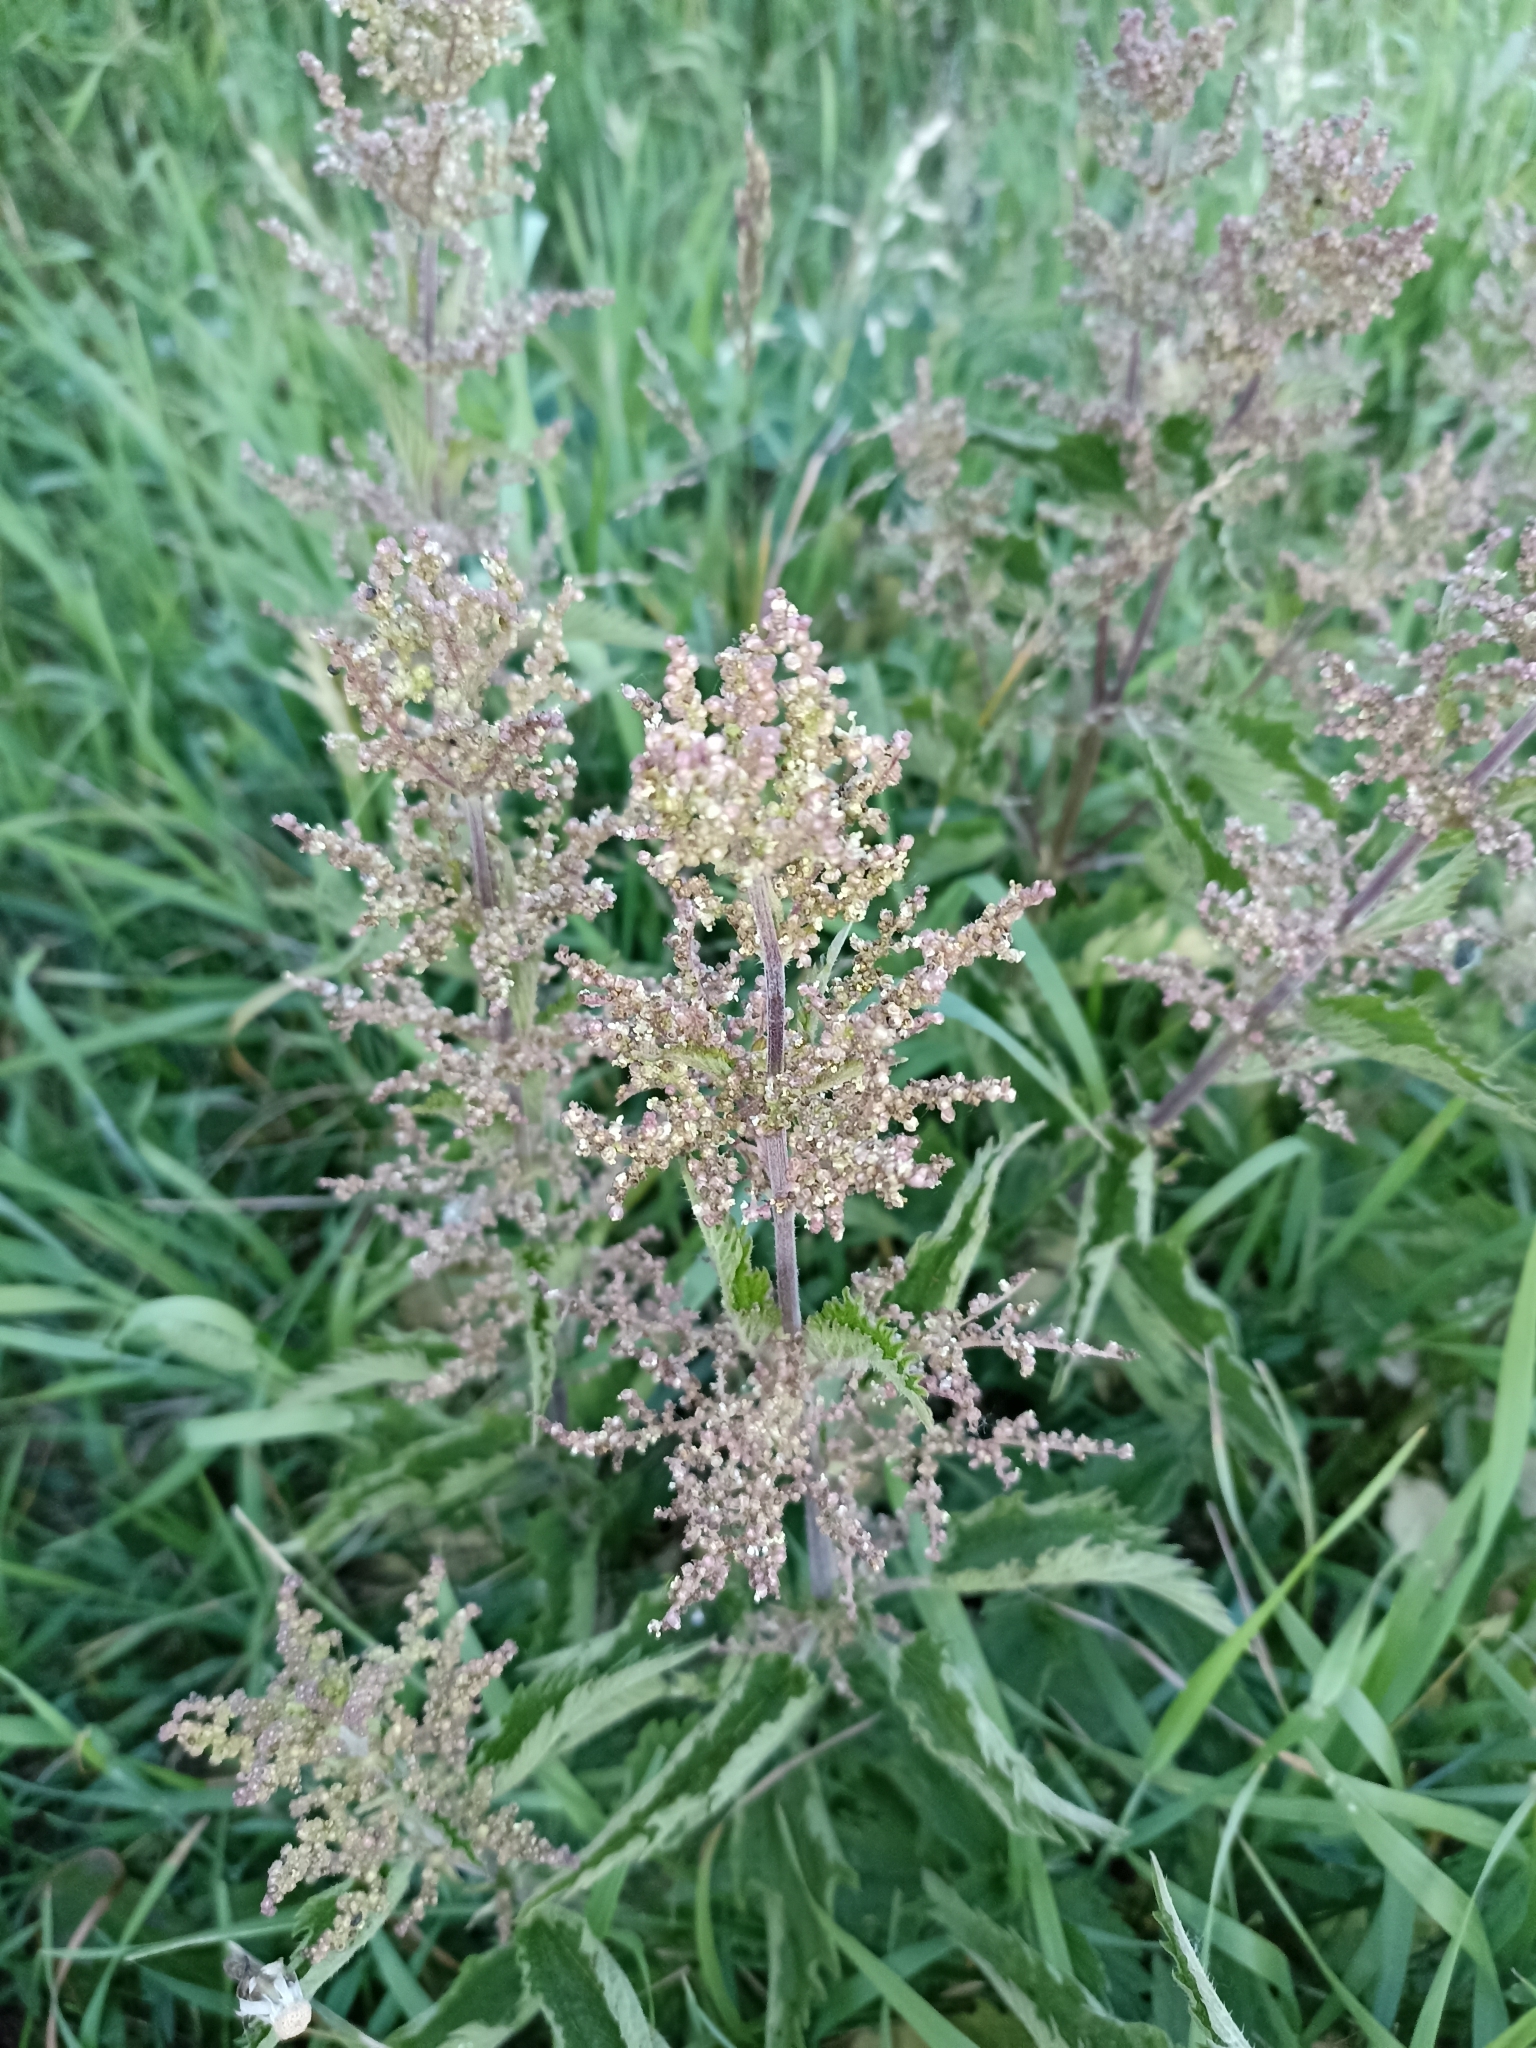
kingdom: Plantae
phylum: Tracheophyta
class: Magnoliopsida
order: Rosales
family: Urticaceae
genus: Urtica
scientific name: Urtica dioica
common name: Common nettle
